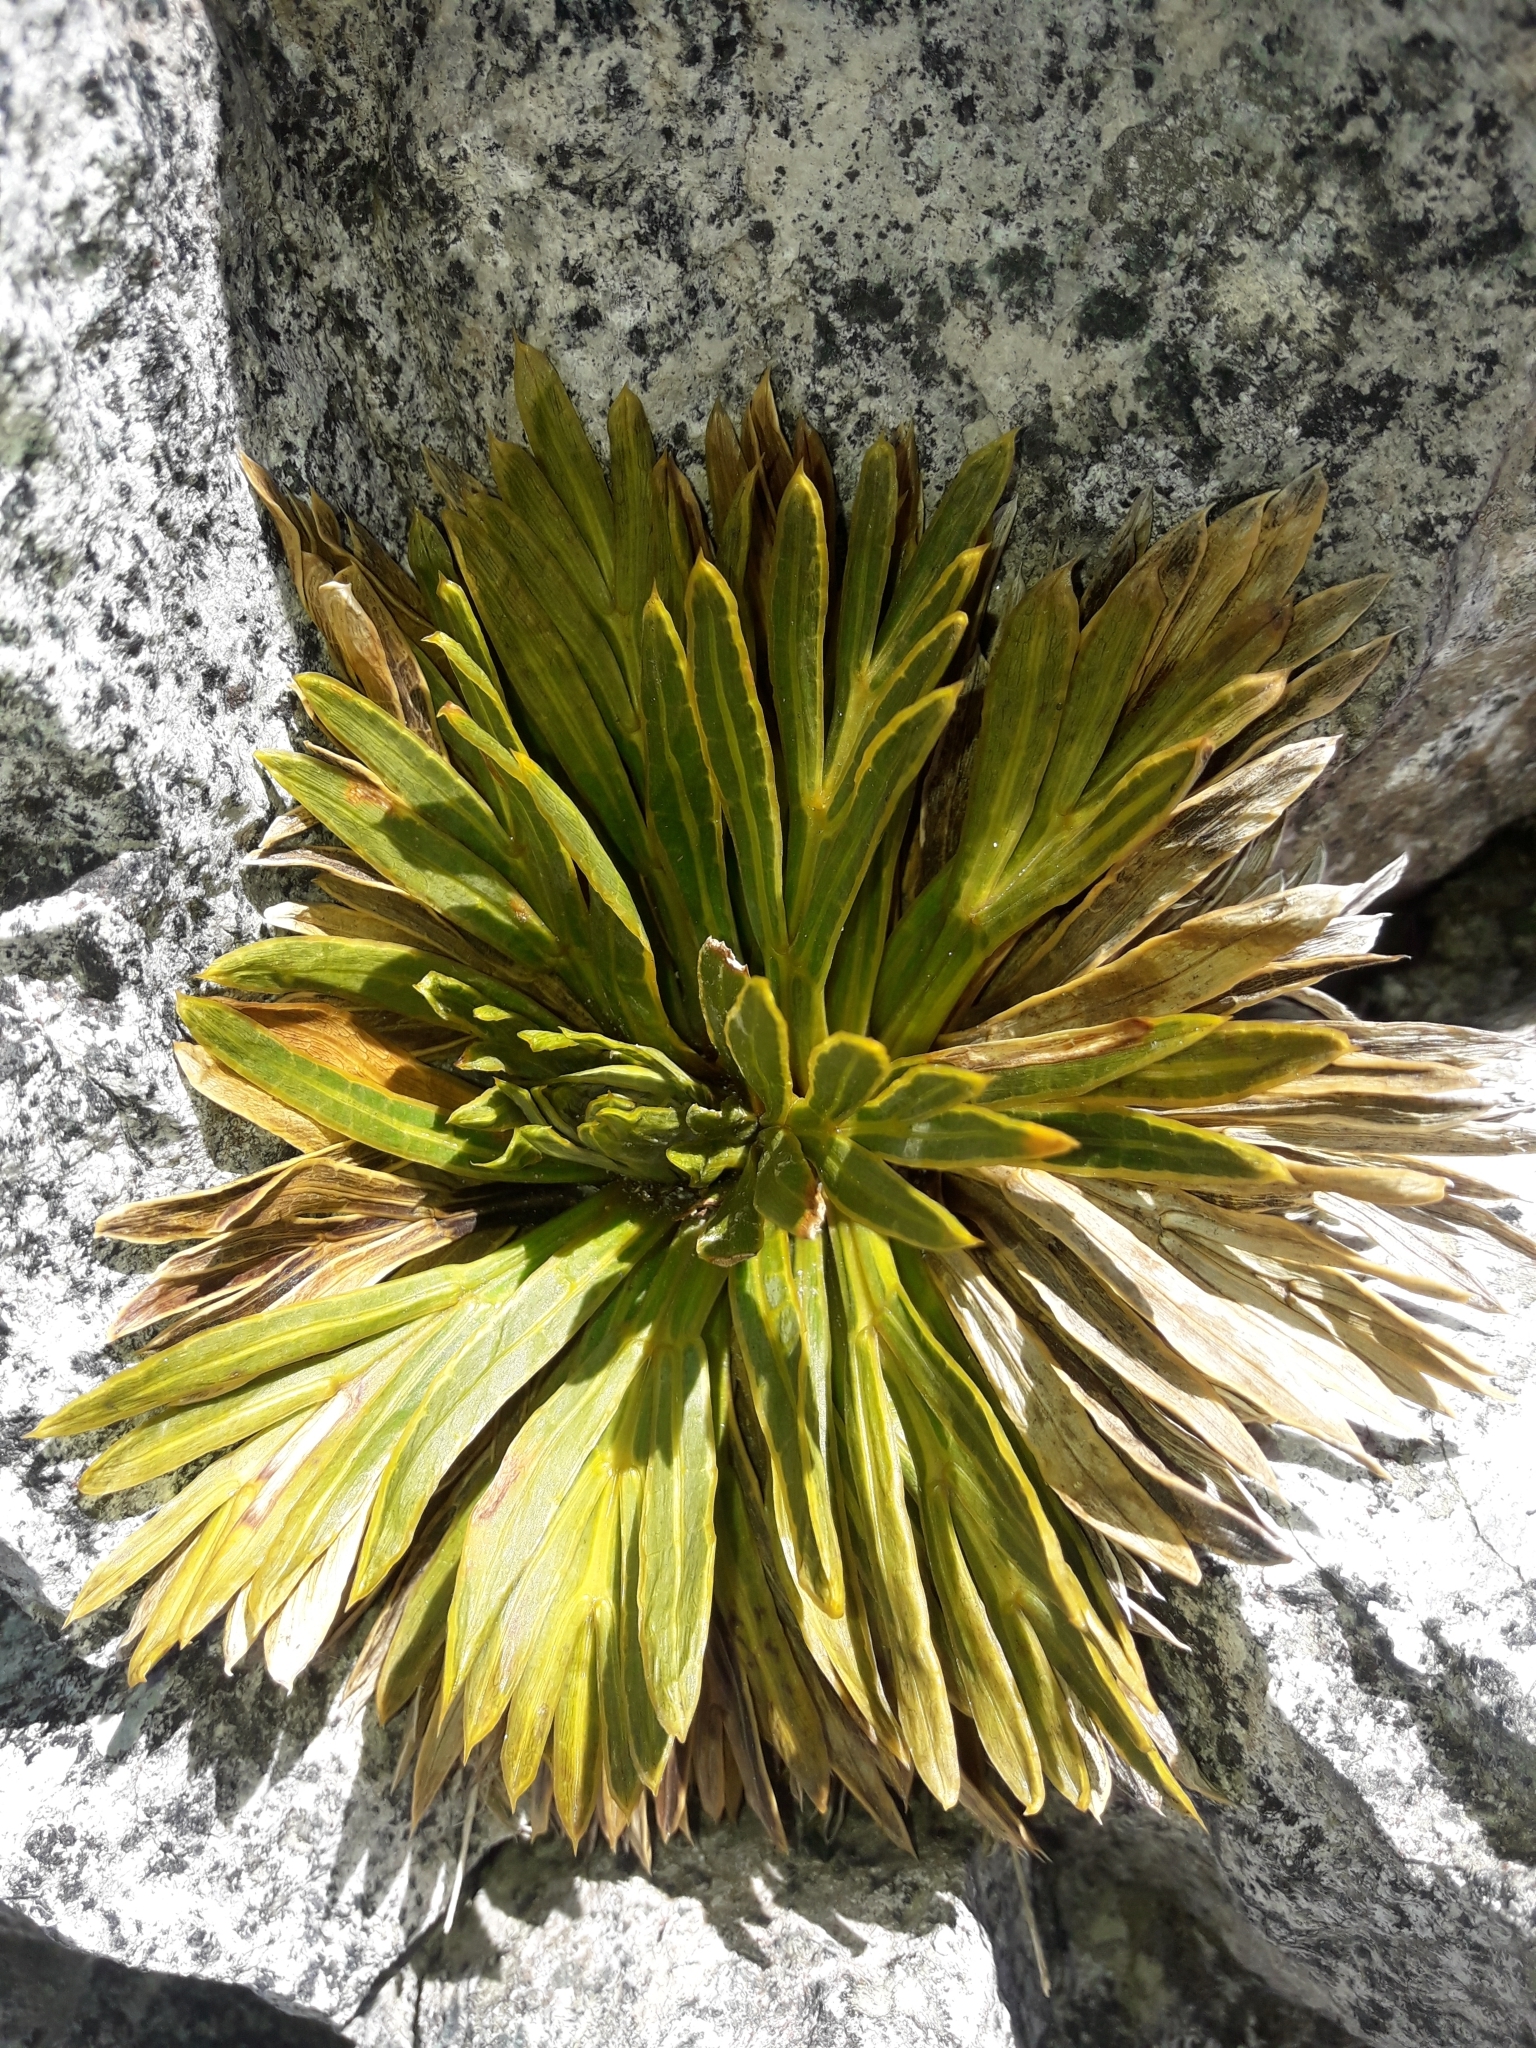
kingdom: Plantae
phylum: Tracheophyta
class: Magnoliopsida
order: Apiales
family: Apiaceae
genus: Aciphylla
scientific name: Aciphylla crosby-smithii
